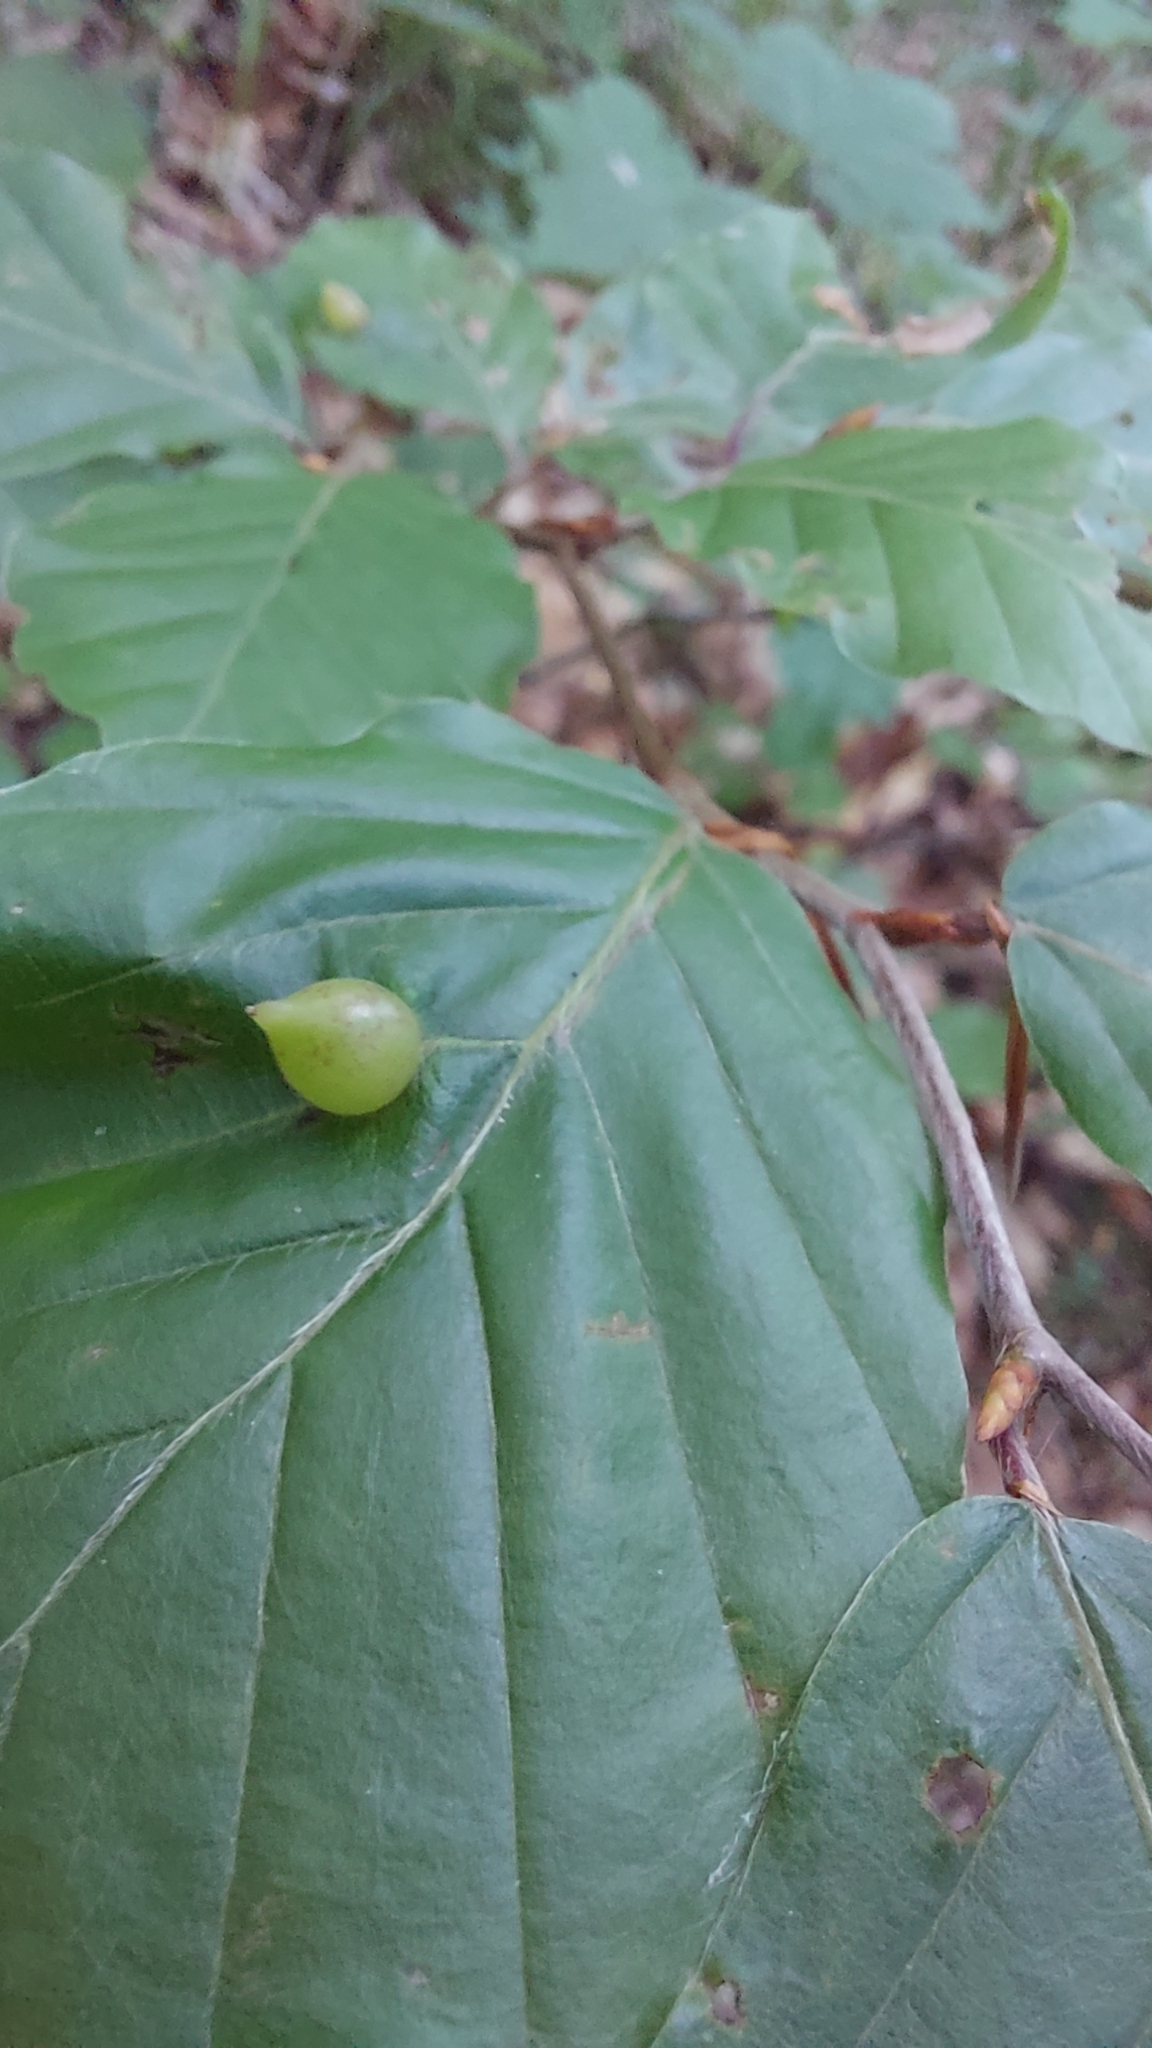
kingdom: Animalia
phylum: Arthropoda
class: Insecta
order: Diptera
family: Cecidomyiidae
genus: Mikiola
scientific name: Mikiola fagi
